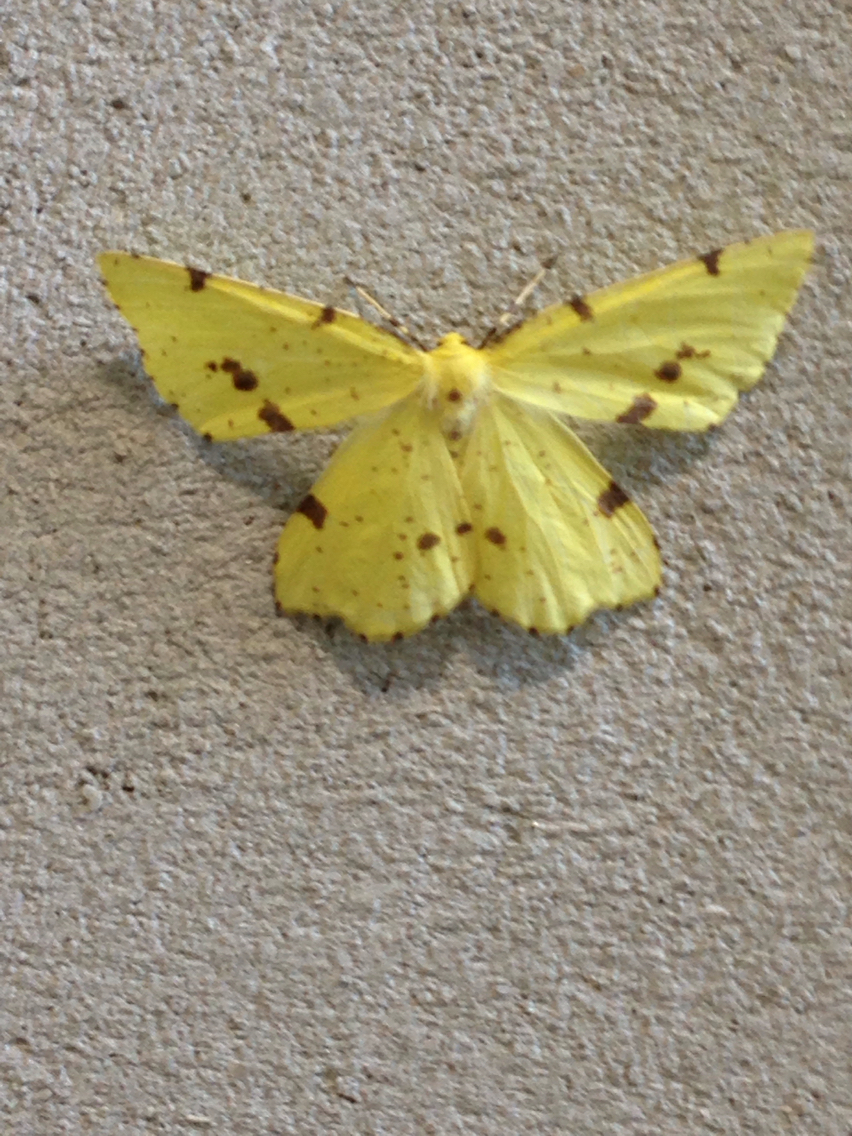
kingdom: Animalia
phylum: Arthropoda
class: Insecta
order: Lepidoptera
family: Geometridae
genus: Xanthotype
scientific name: Xanthotype
